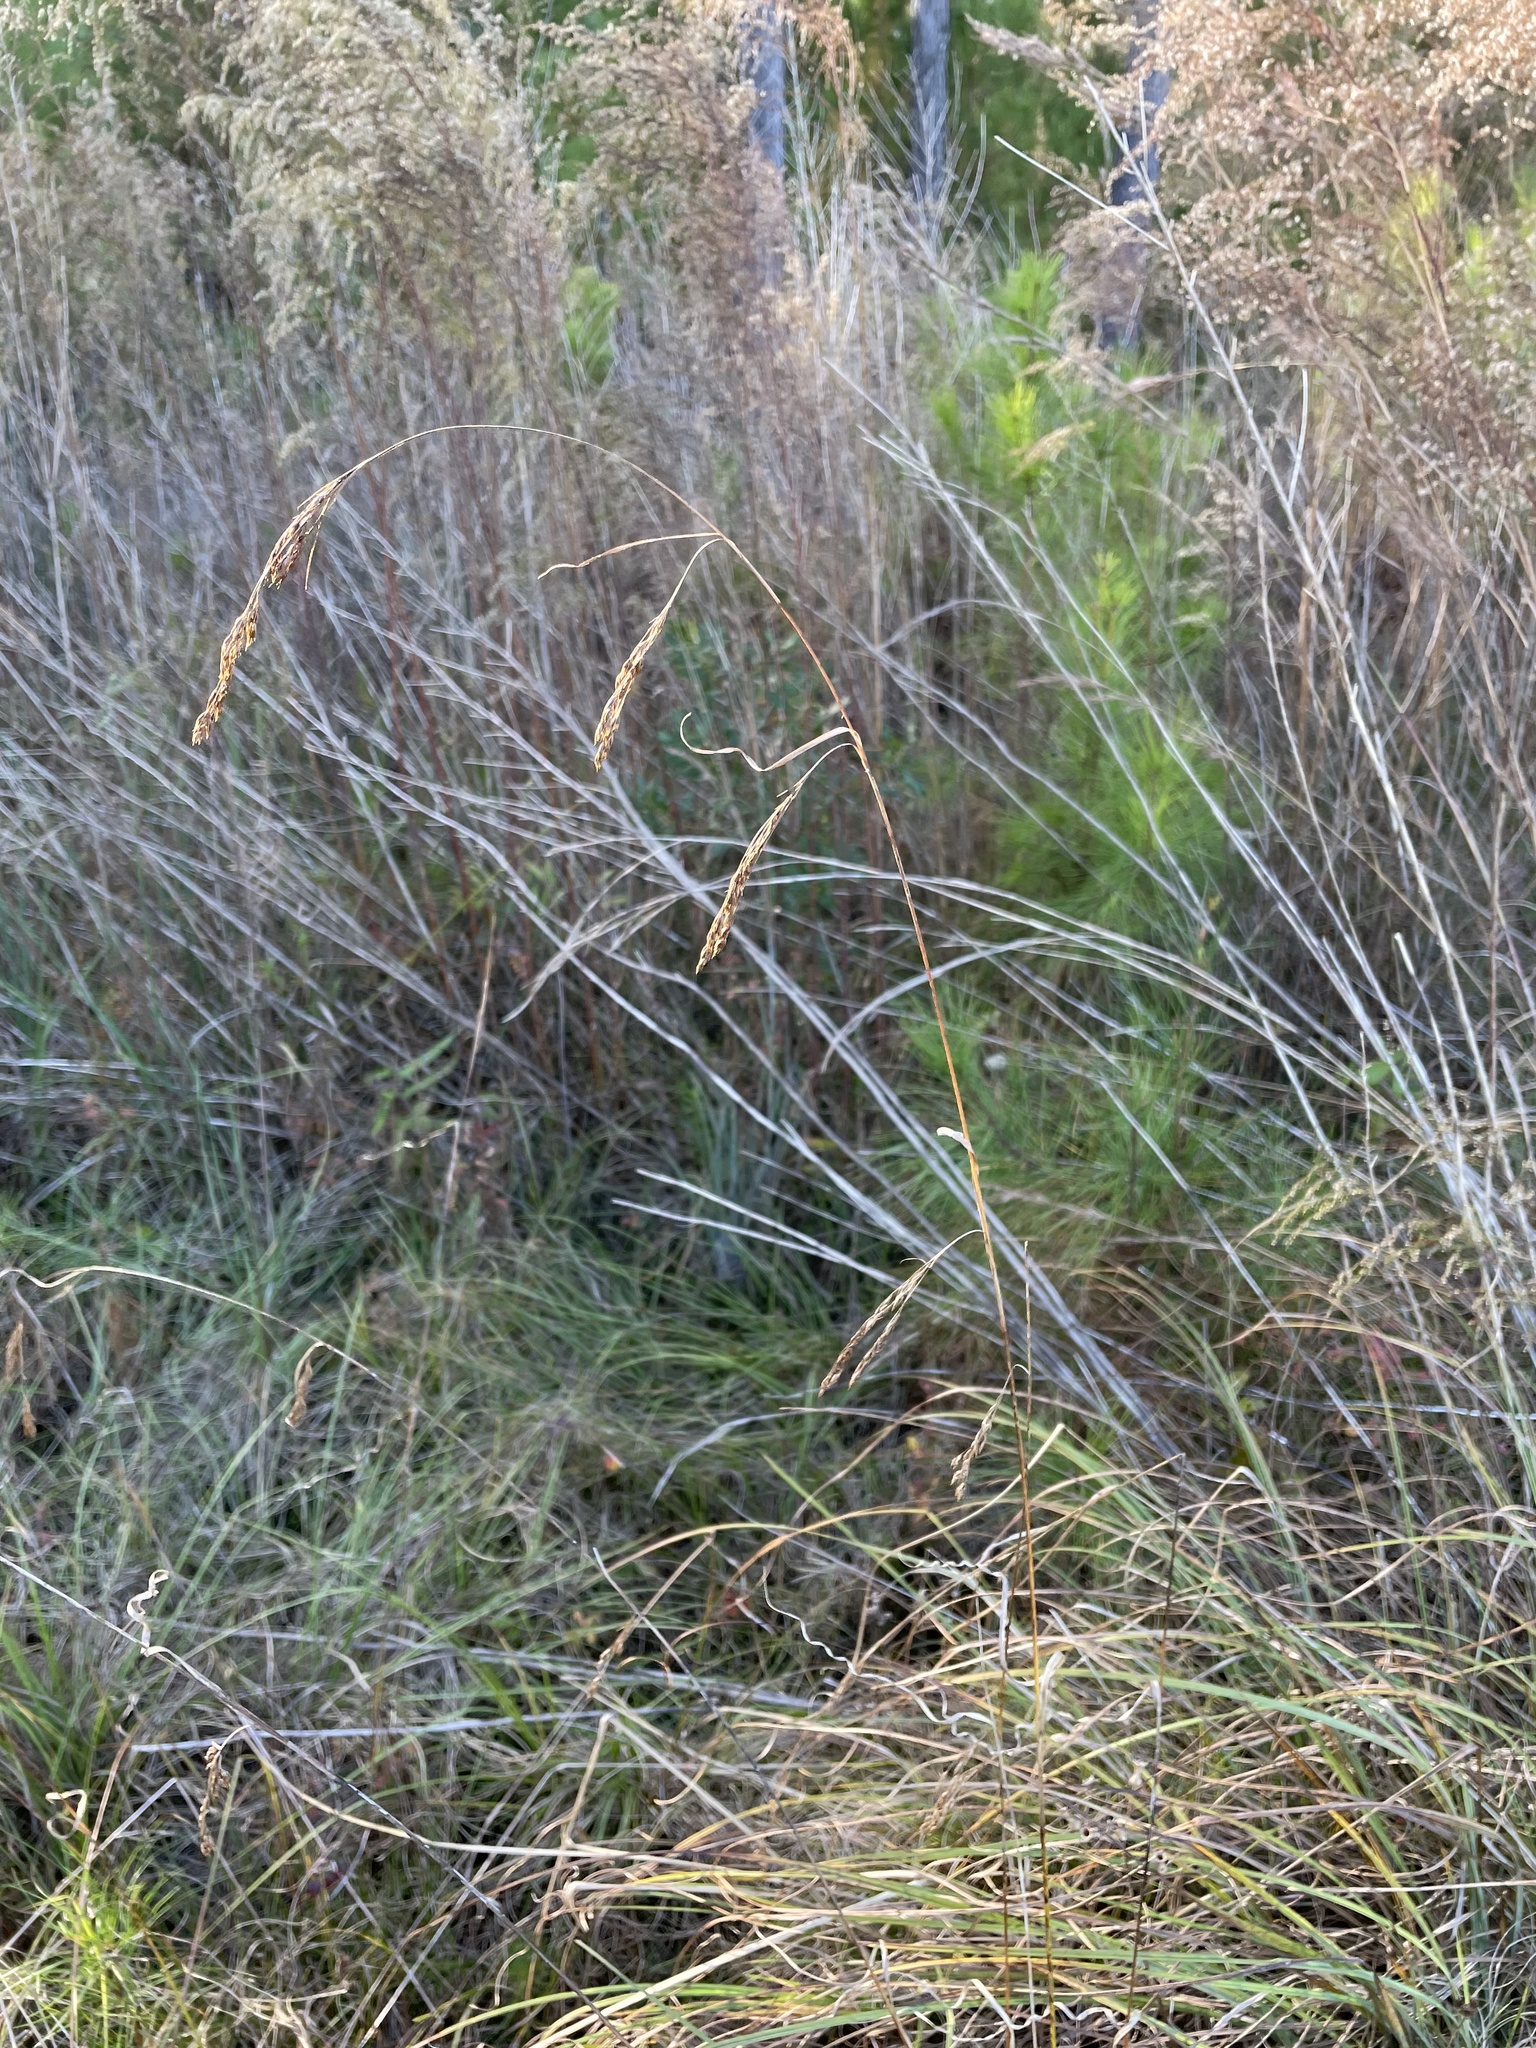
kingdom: Plantae
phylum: Tracheophyta
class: Liliopsida
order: Poales
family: Cyperaceae
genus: Rhynchospora
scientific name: Rhynchospora inexpansa
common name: Nodding beaksedge
